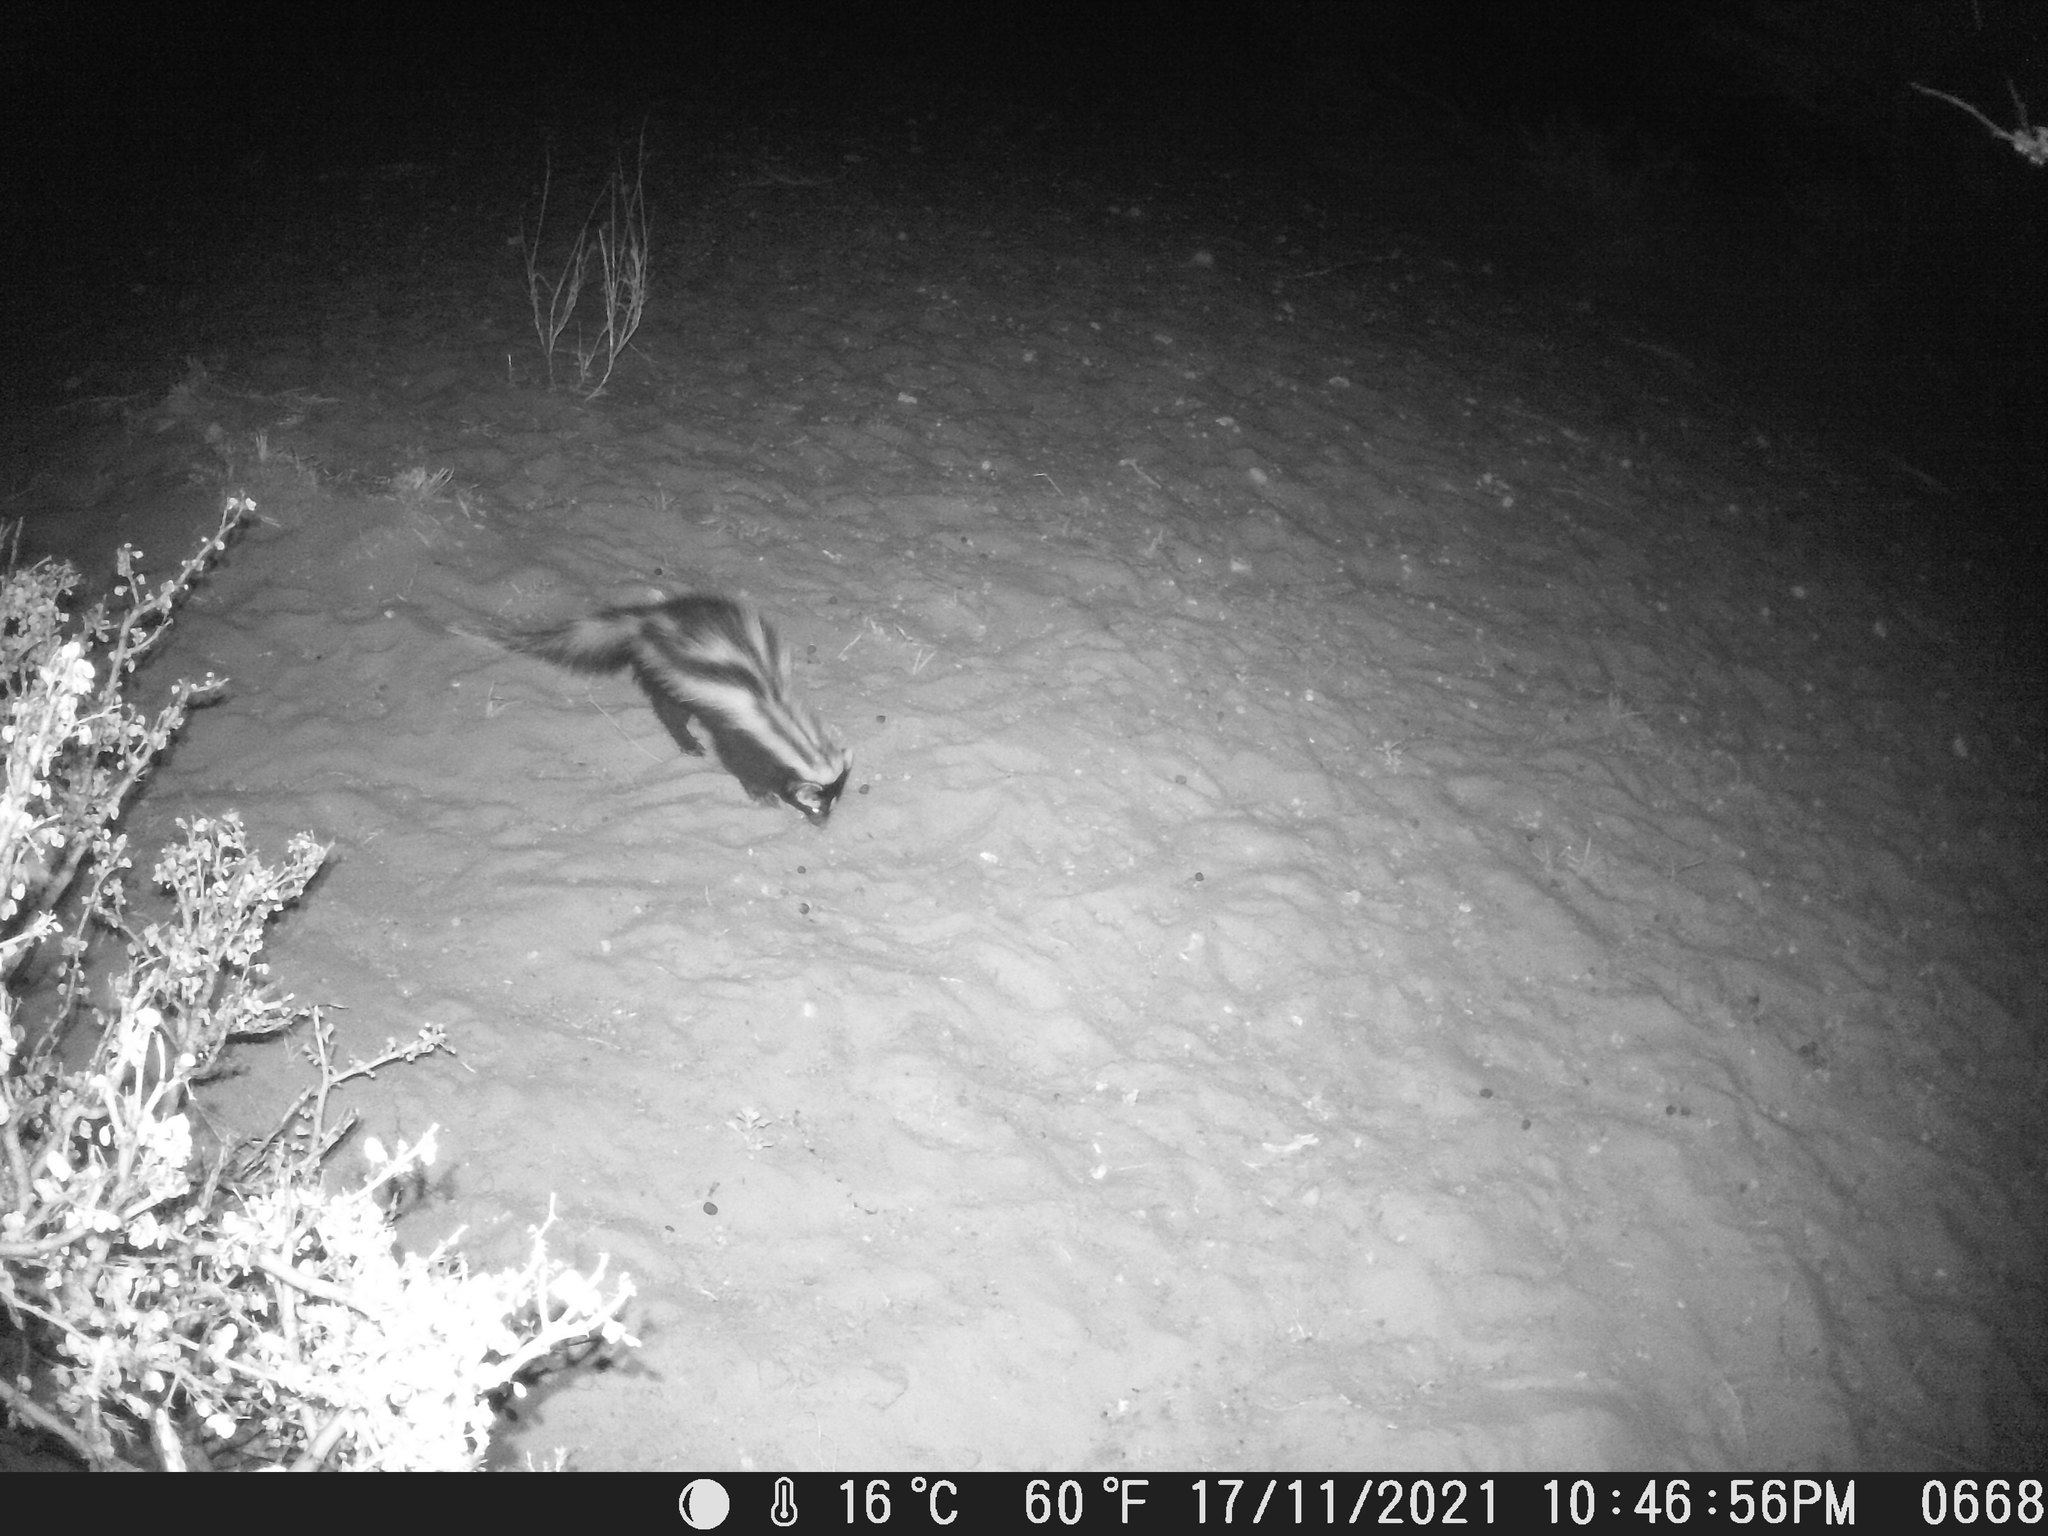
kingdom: Animalia
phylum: Chordata
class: Mammalia
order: Carnivora
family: Mustelidae
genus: Ictonyx
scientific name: Ictonyx striatus
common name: Striped polecat
